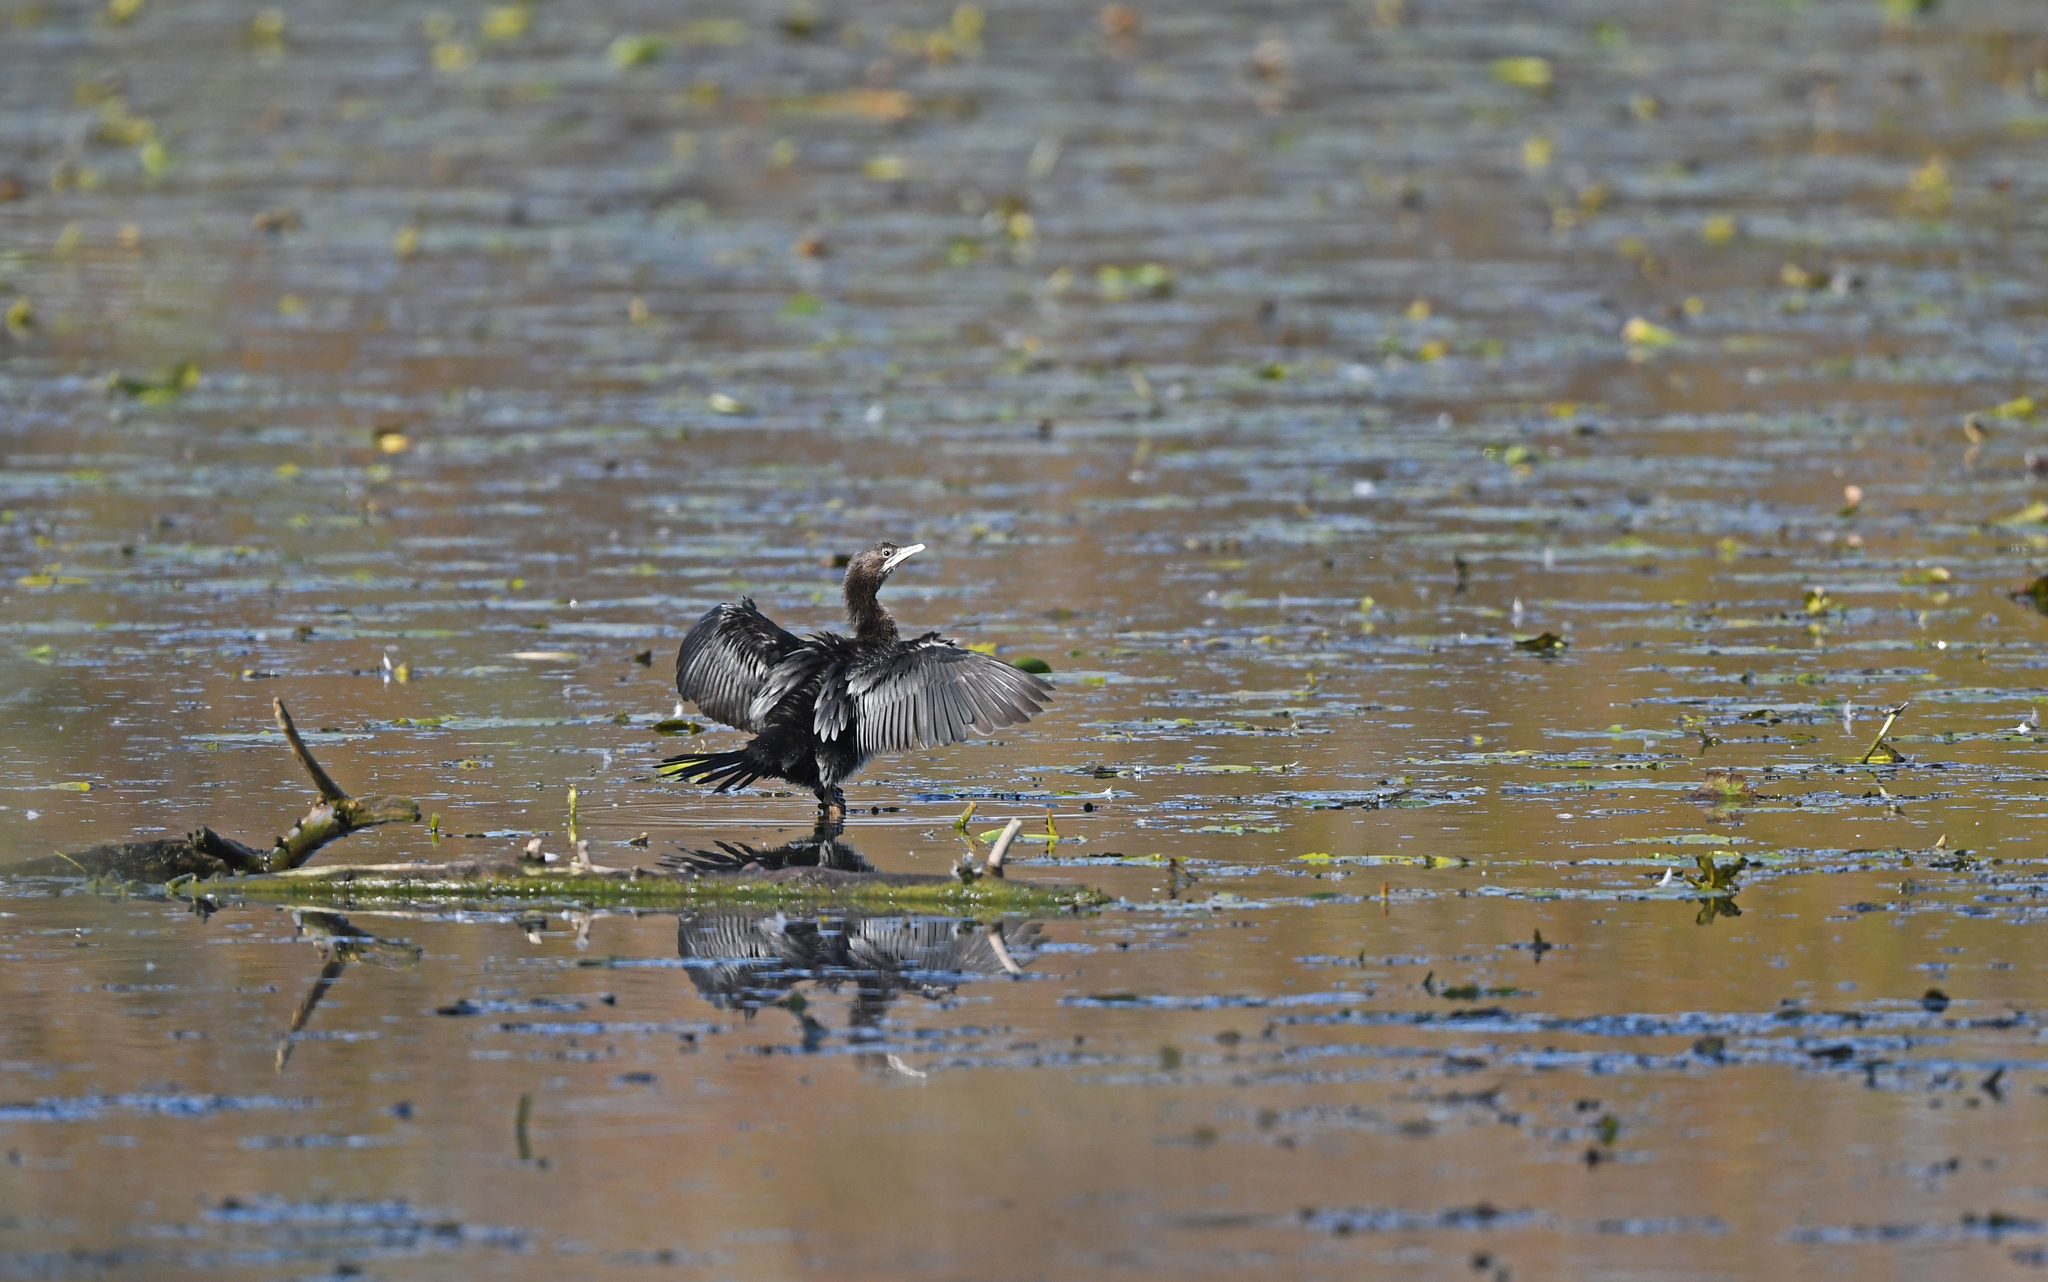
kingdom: Animalia
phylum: Chordata
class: Aves
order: Suliformes
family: Phalacrocoracidae
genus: Microcarbo
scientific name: Microcarbo pygmaeus
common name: Pygmy cormorant
